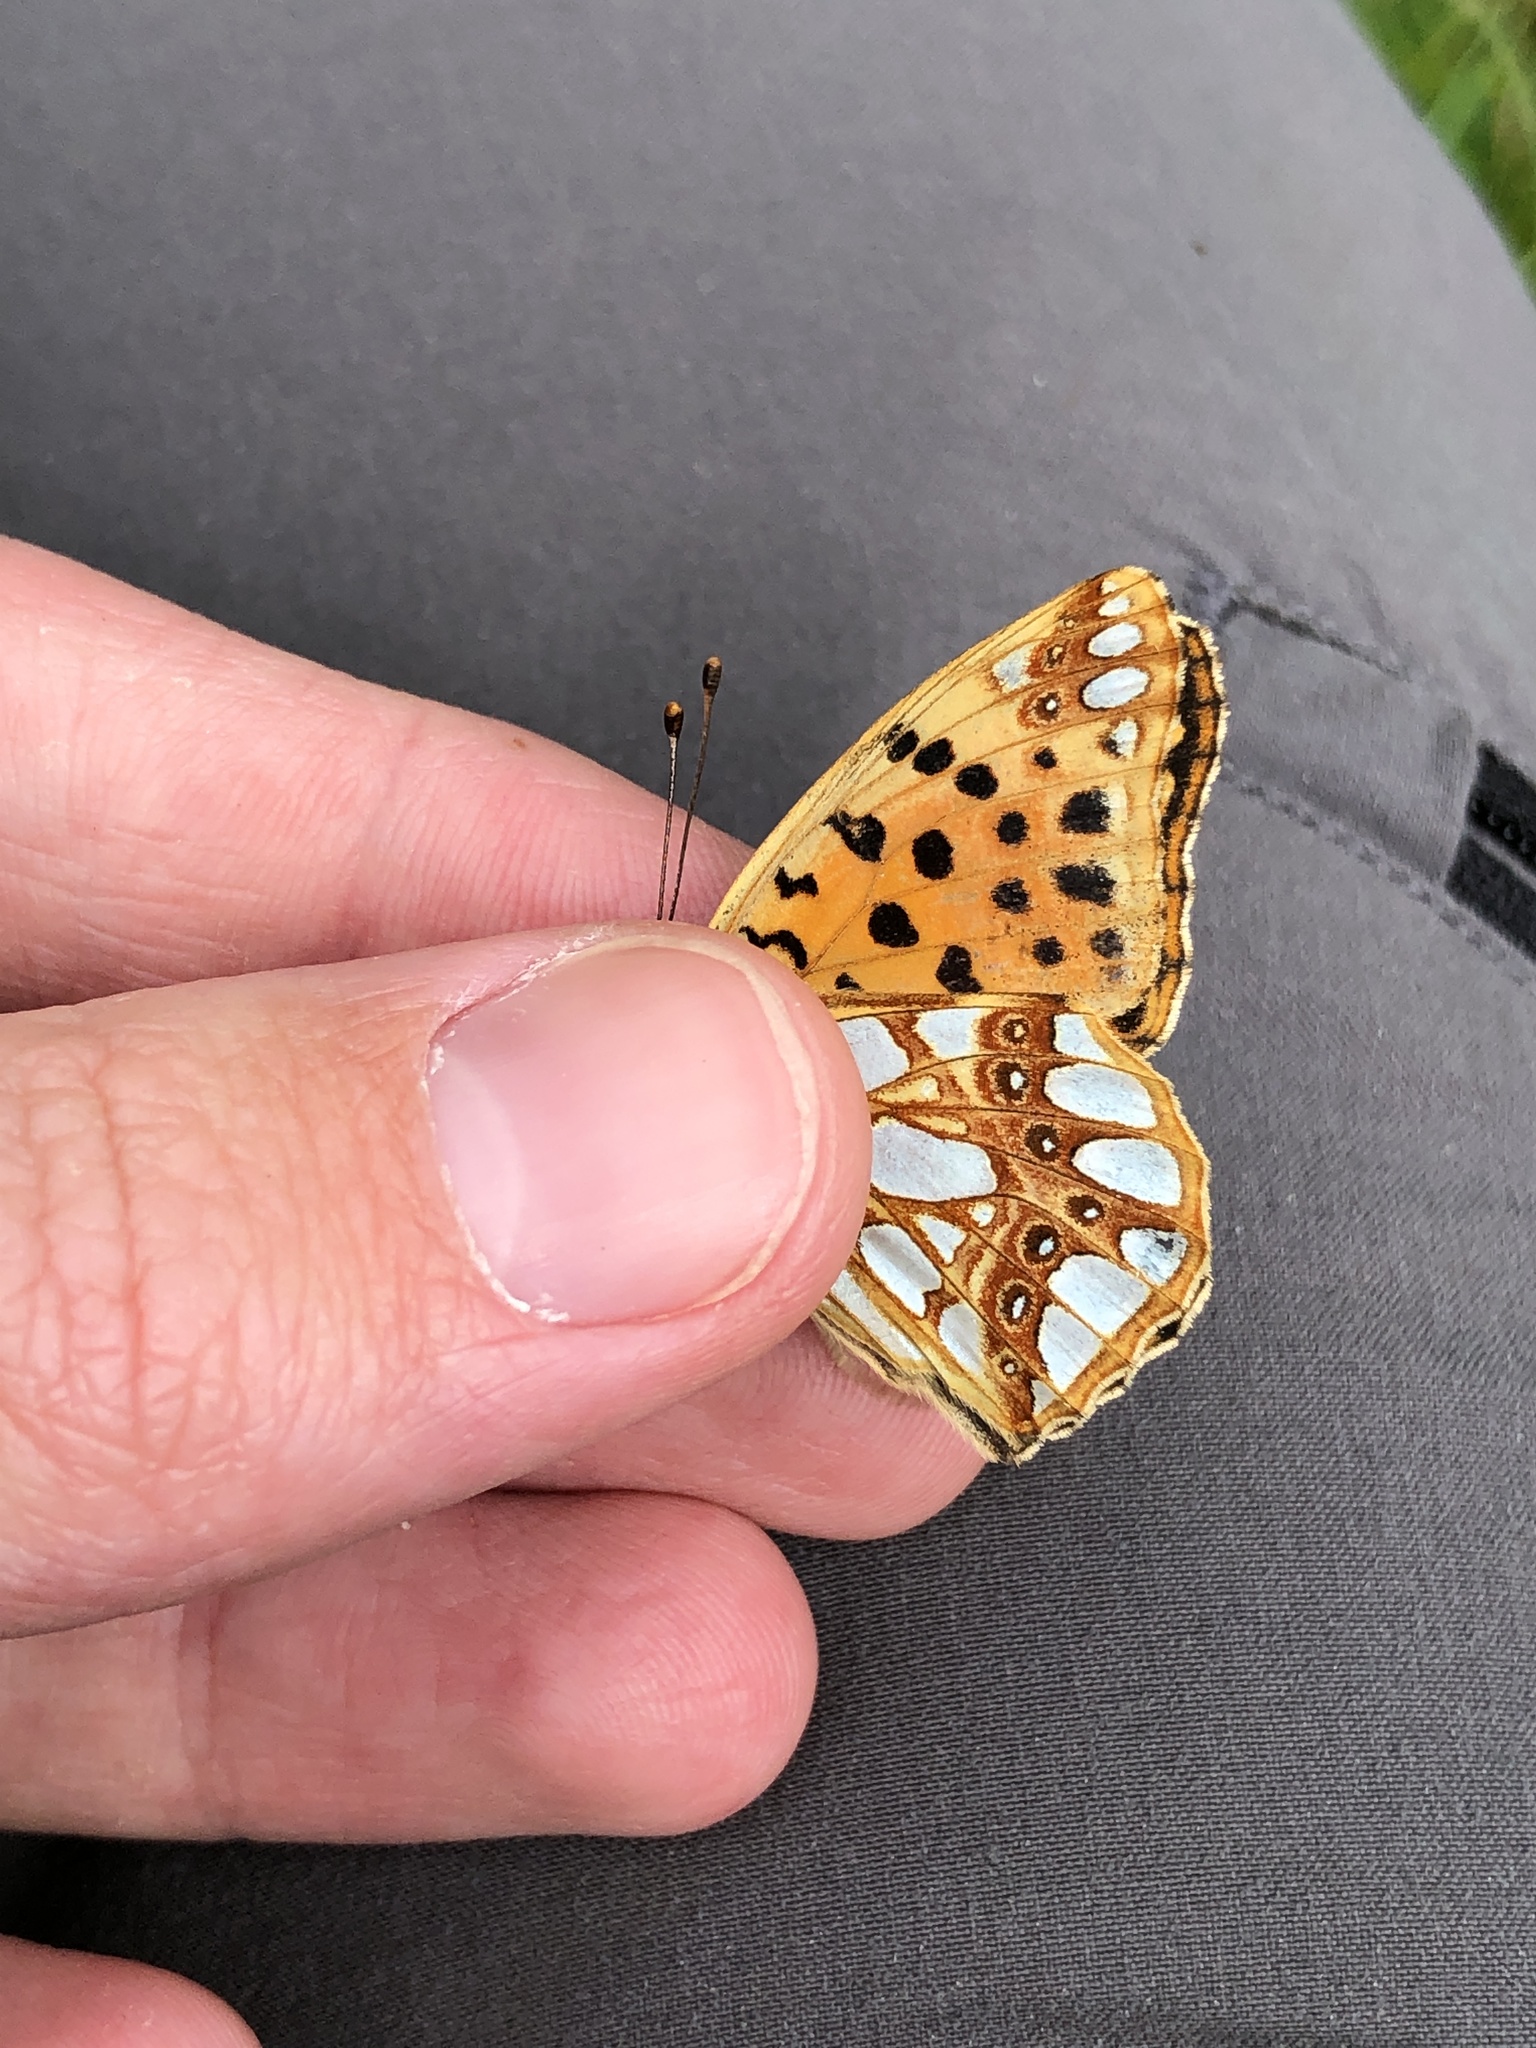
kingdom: Animalia
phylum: Arthropoda
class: Insecta
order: Lepidoptera
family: Nymphalidae
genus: Issoria
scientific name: Issoria lathonia
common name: Queen of spain fritillary
